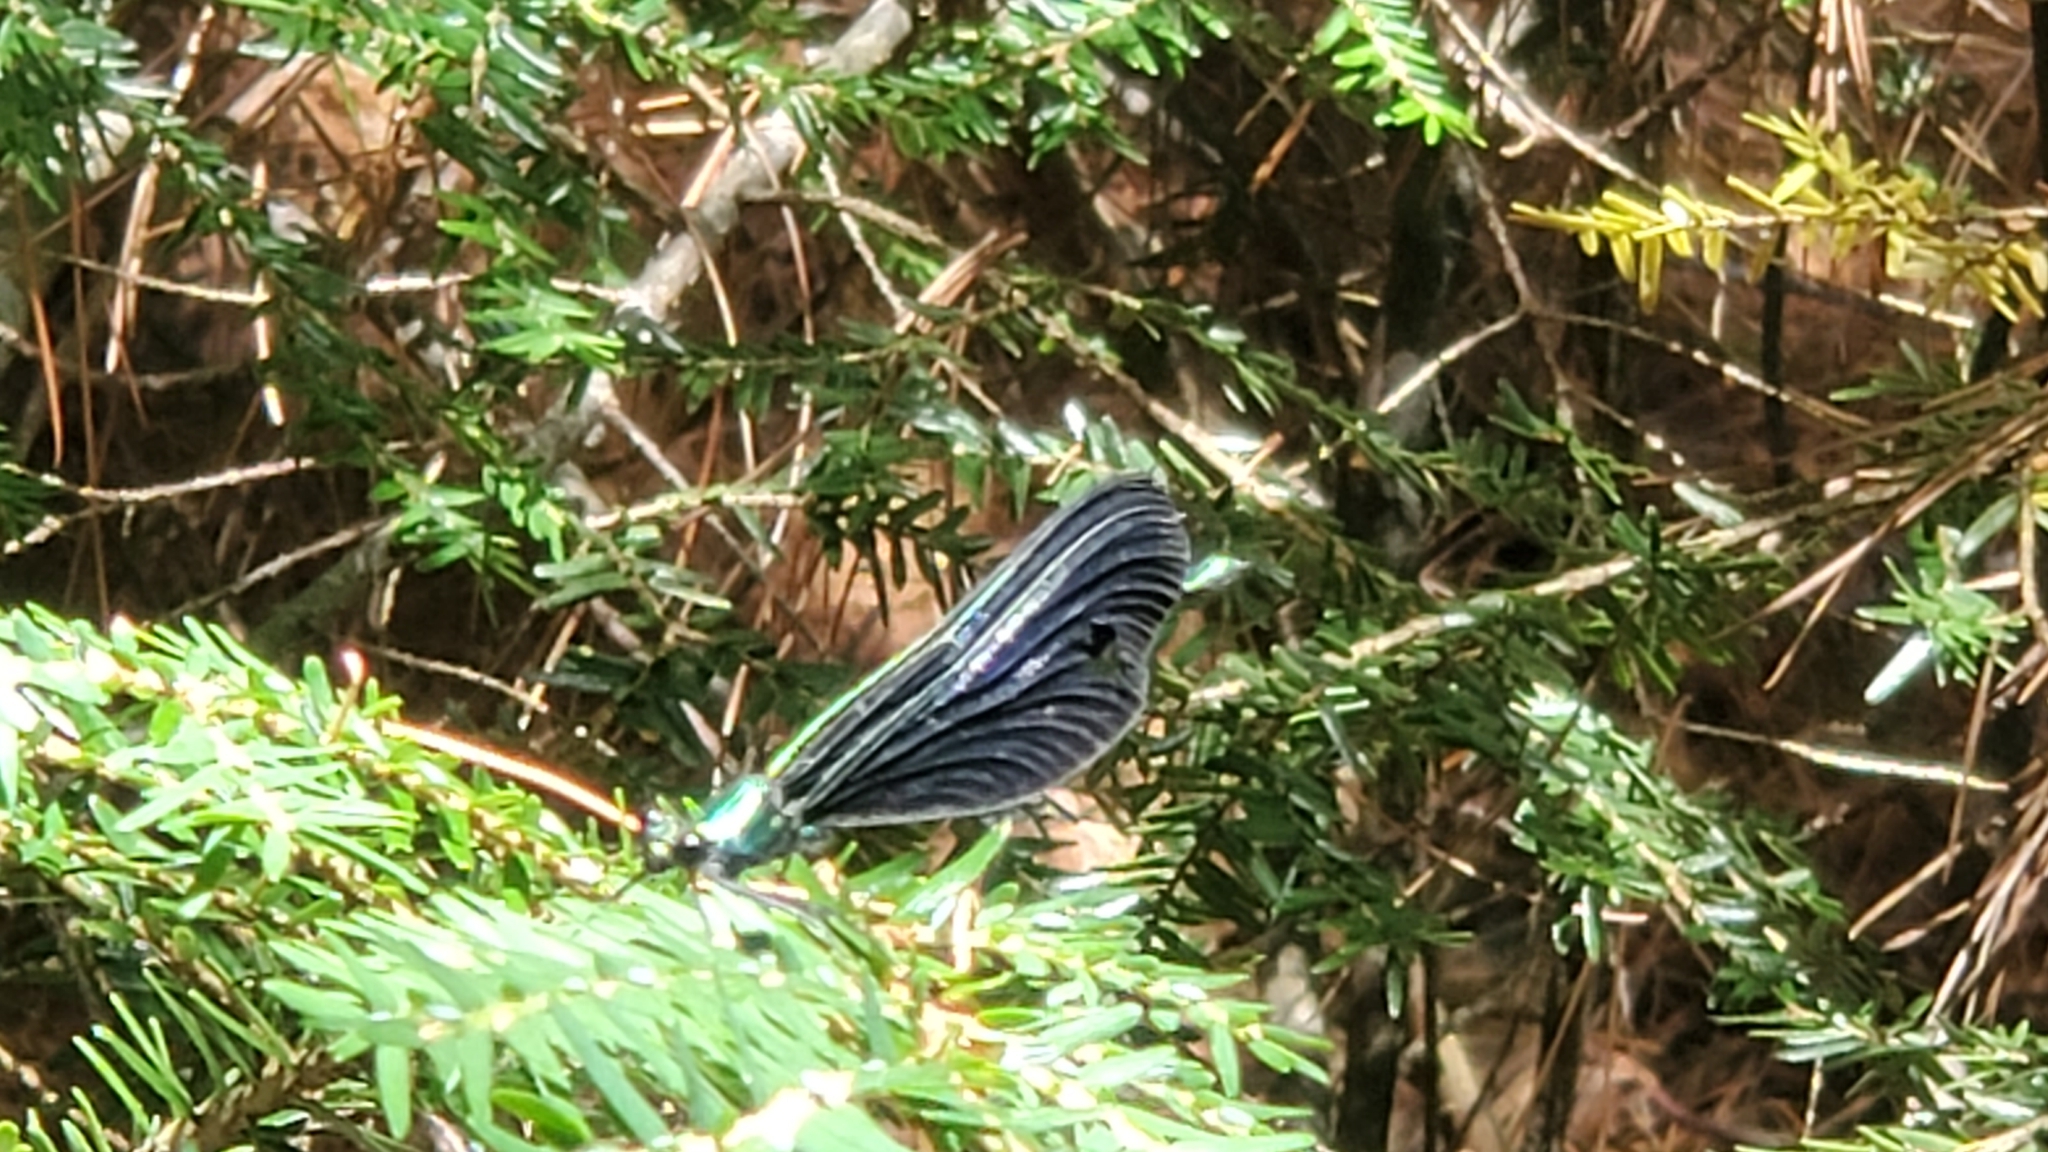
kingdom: Animalia
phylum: Arthropoda
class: Insecta
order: Odonata
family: Calopterygidae
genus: Calopteryx
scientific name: Calopteryx maculata
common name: Ebony jewelwing
